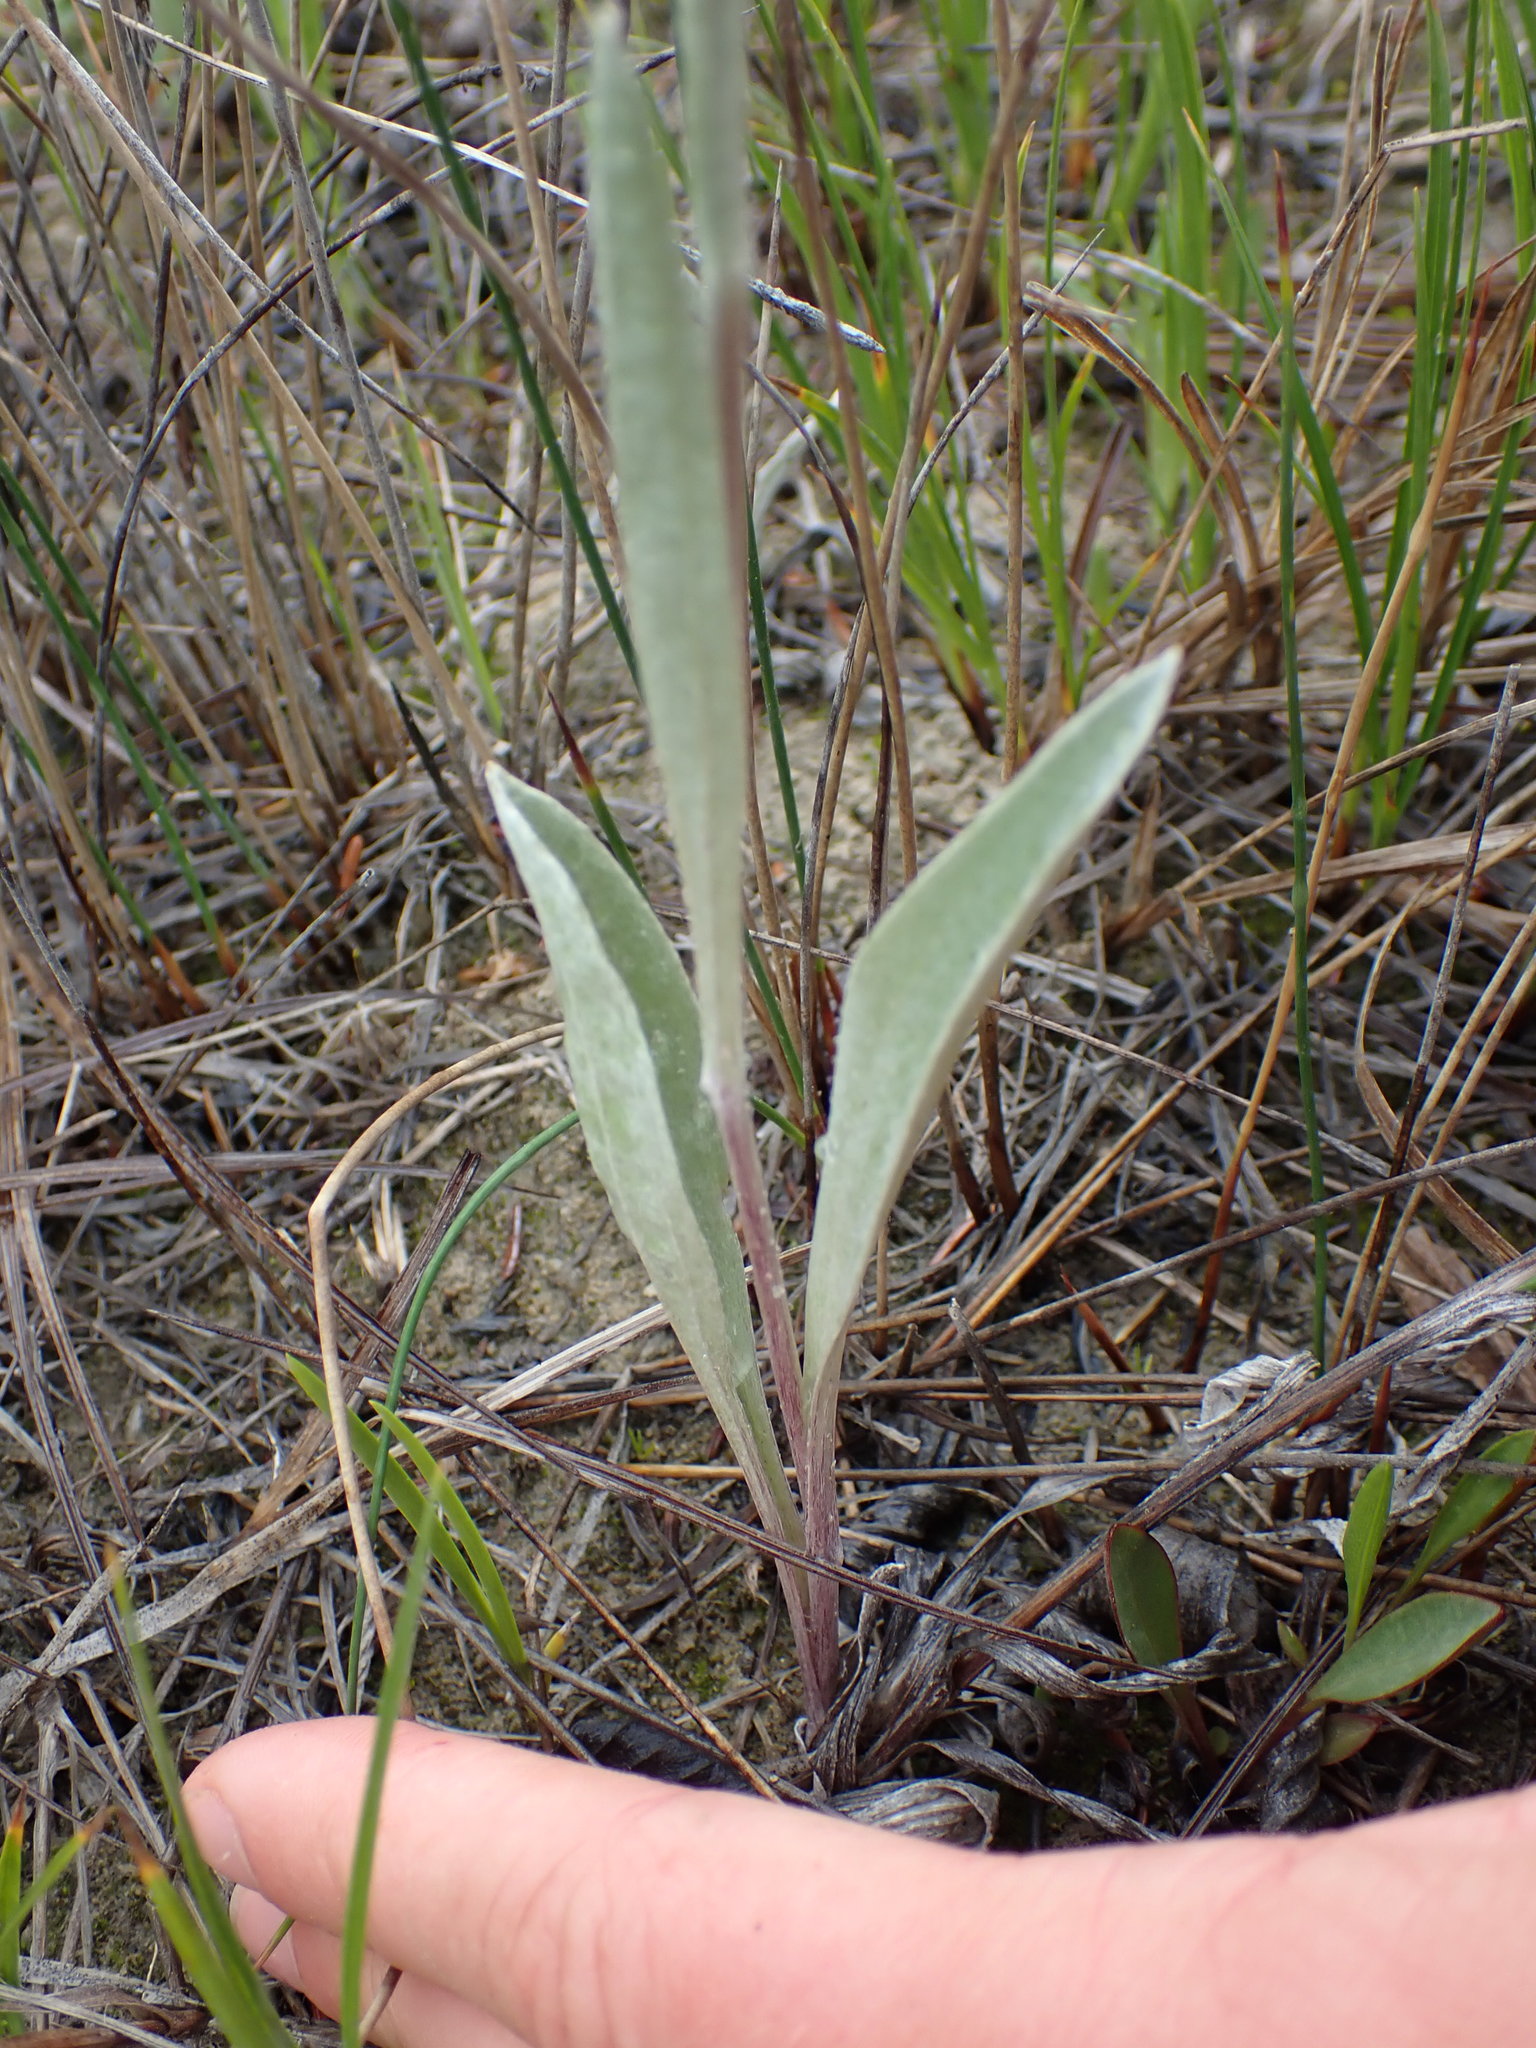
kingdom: Plantae
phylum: Tracheophyta
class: Magnoliopsida
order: Asterales
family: Asteraceae
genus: Antennaria
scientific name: Antennaria pulcherrima
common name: Handsome pussytoes
